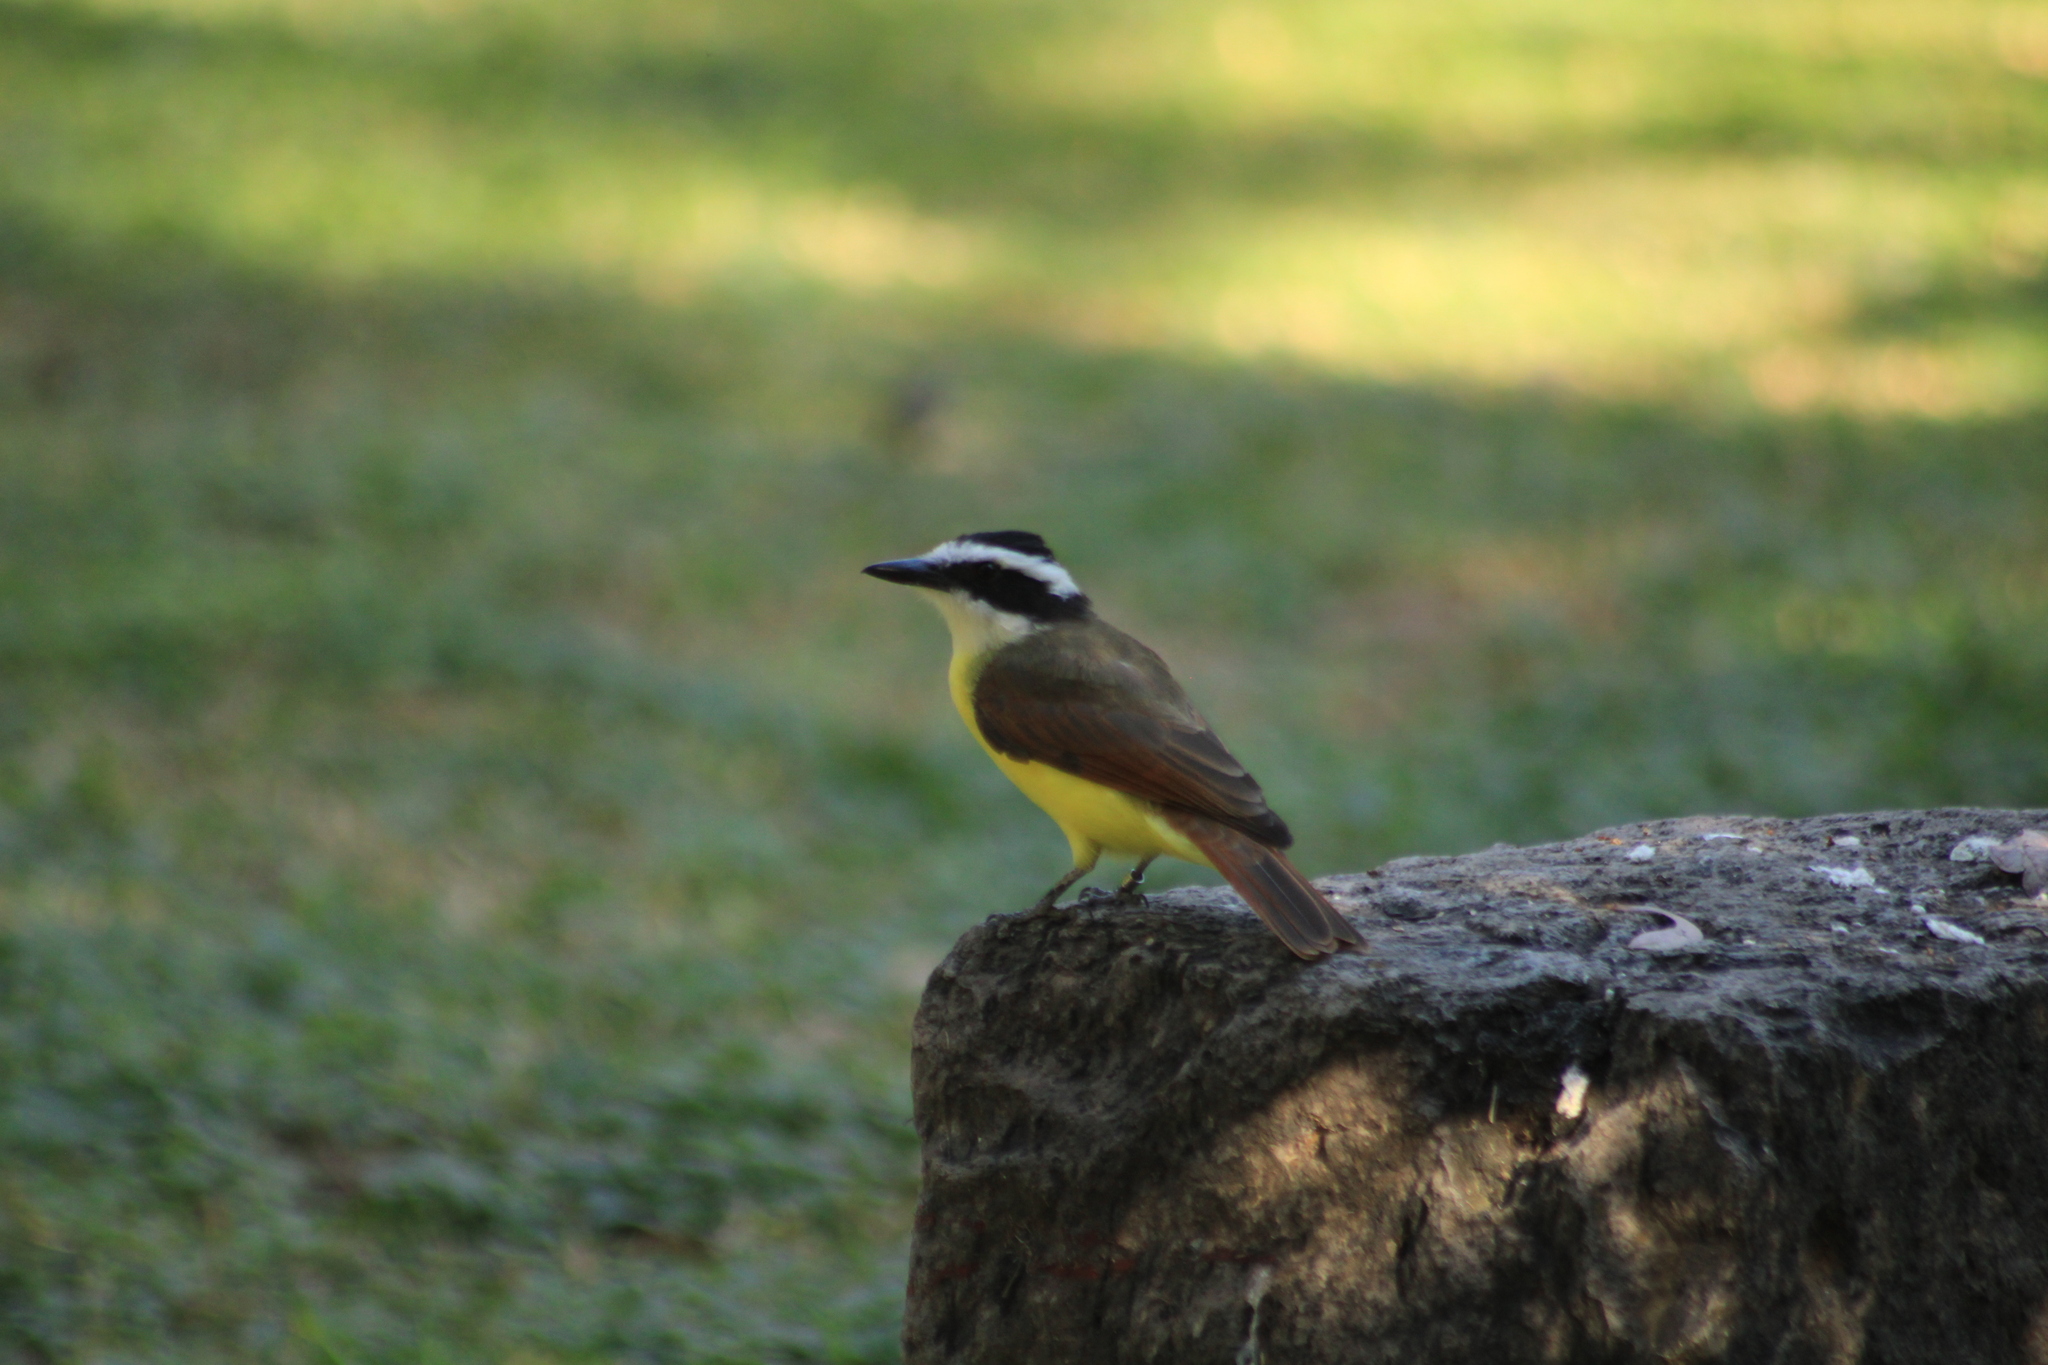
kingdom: Animalia
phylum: Chordata
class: Aves
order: Passeriformes
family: Tyrannidae
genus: Pitangus
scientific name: Pitangus sulphuratus
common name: Great kiskadee
